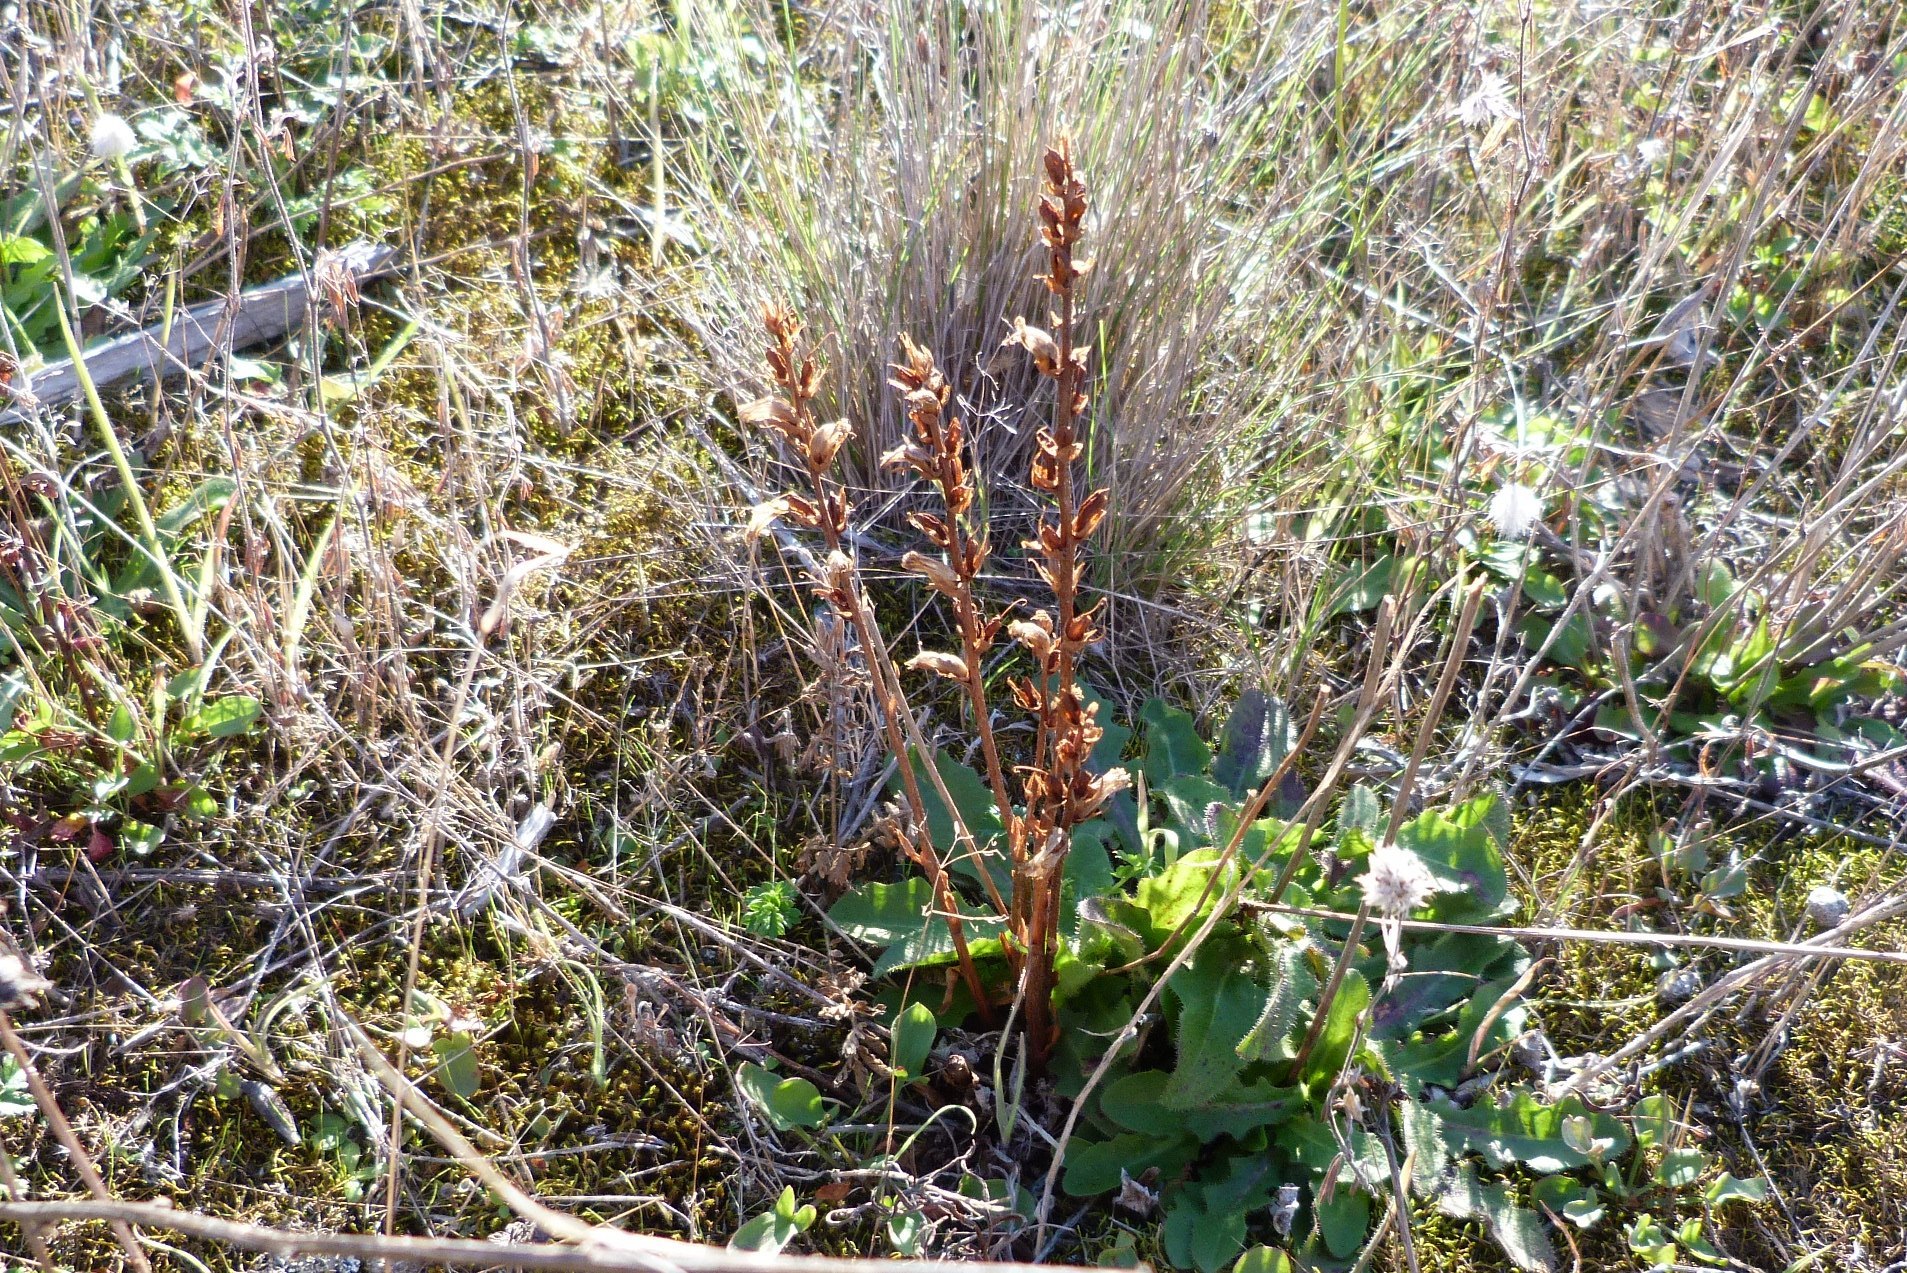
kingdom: Plantae
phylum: Tracheophyta
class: Magnoliopsida
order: Lamiales
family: Orobanchaceae
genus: Orobanche
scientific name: Orobanche minor
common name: Common broomrape
